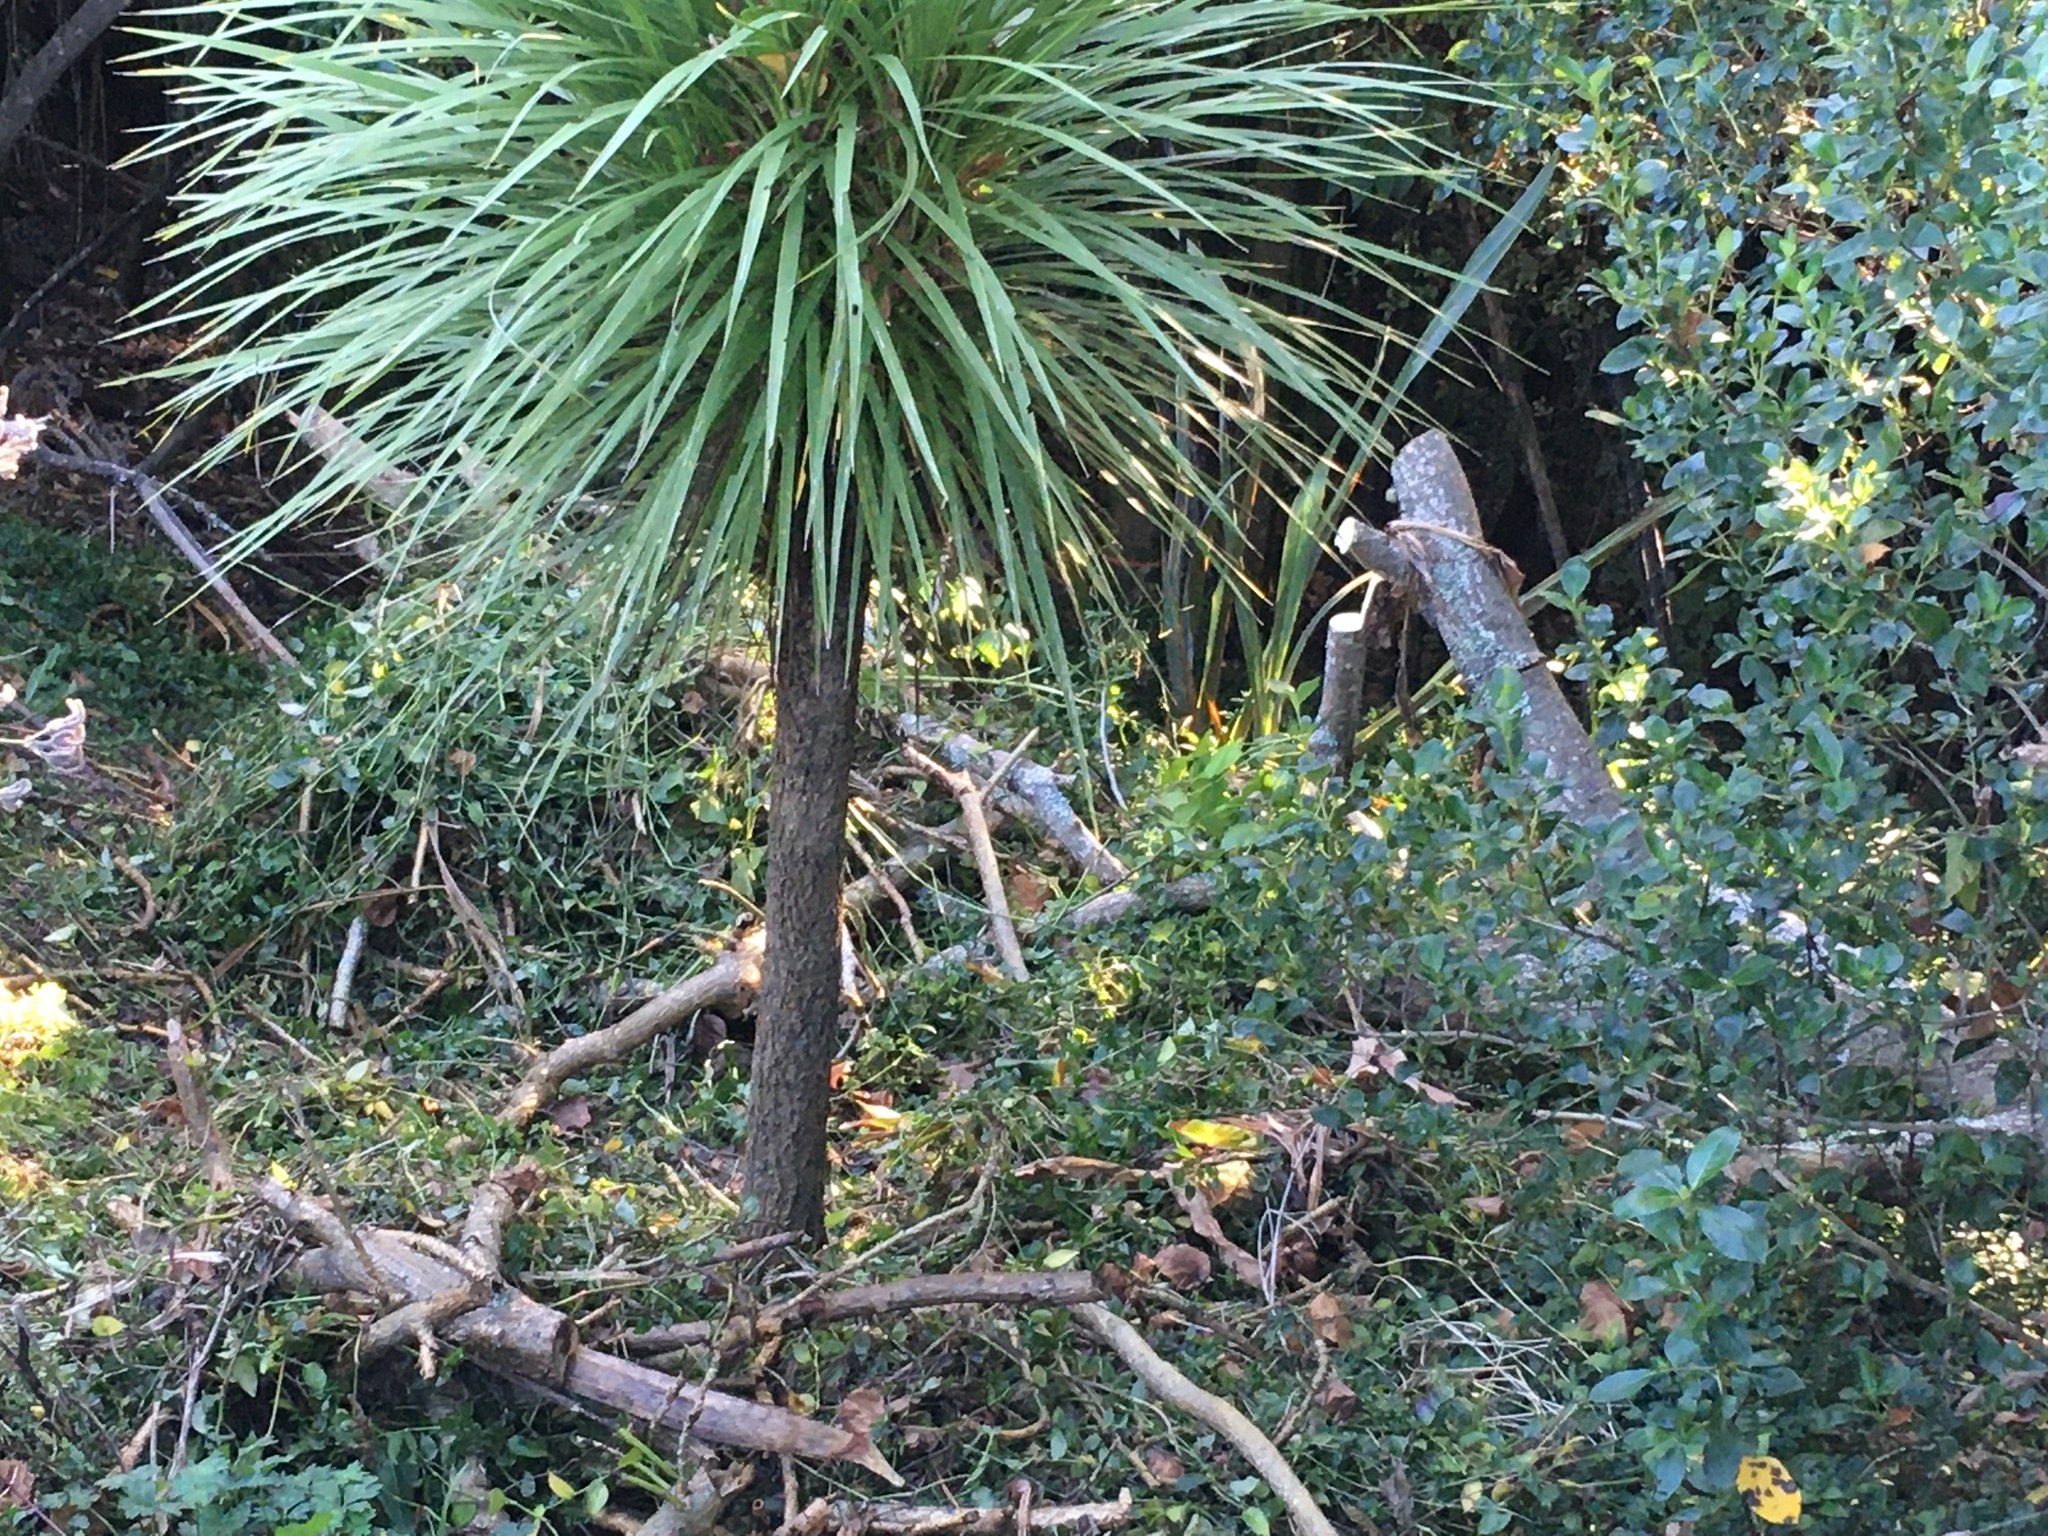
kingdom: Plantae
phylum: Tracheophyta
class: Liliopsida
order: Asparagales
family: Asparagaceae
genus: Cordyline
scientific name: Cordyline australis
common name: Cabbage-palm
